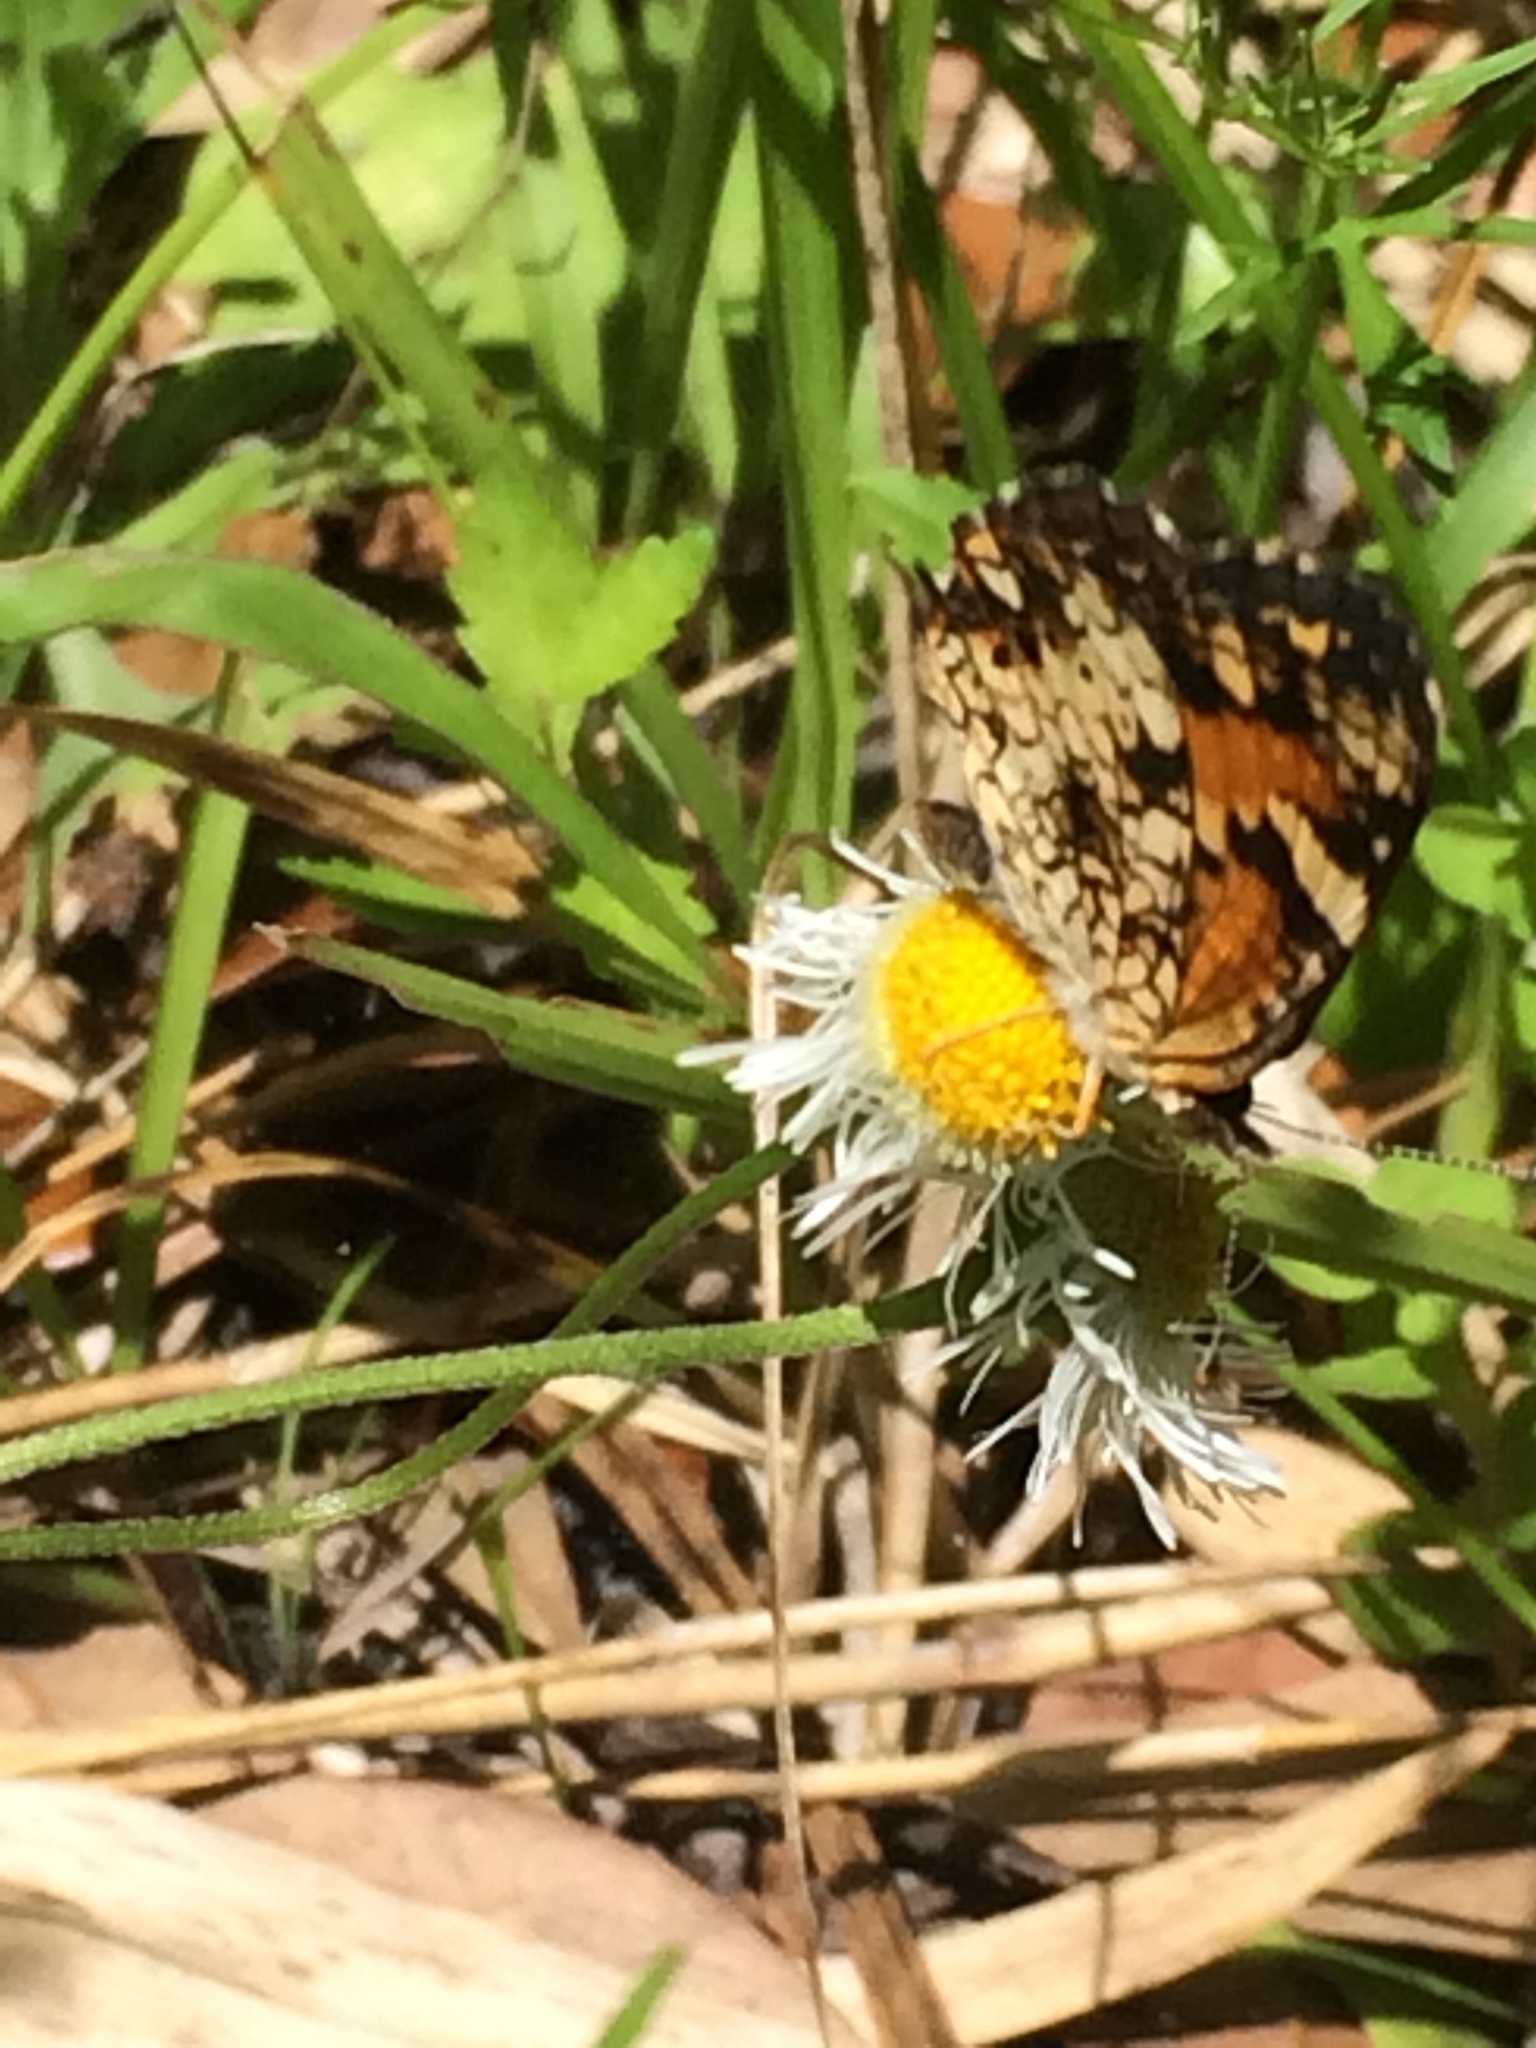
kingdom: Animalia
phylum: Arthropoda
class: Insecta
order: Lepidoptera
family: Nymphalidae
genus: Phyciodes
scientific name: Phyciodes phaon
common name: Phaon crescent
